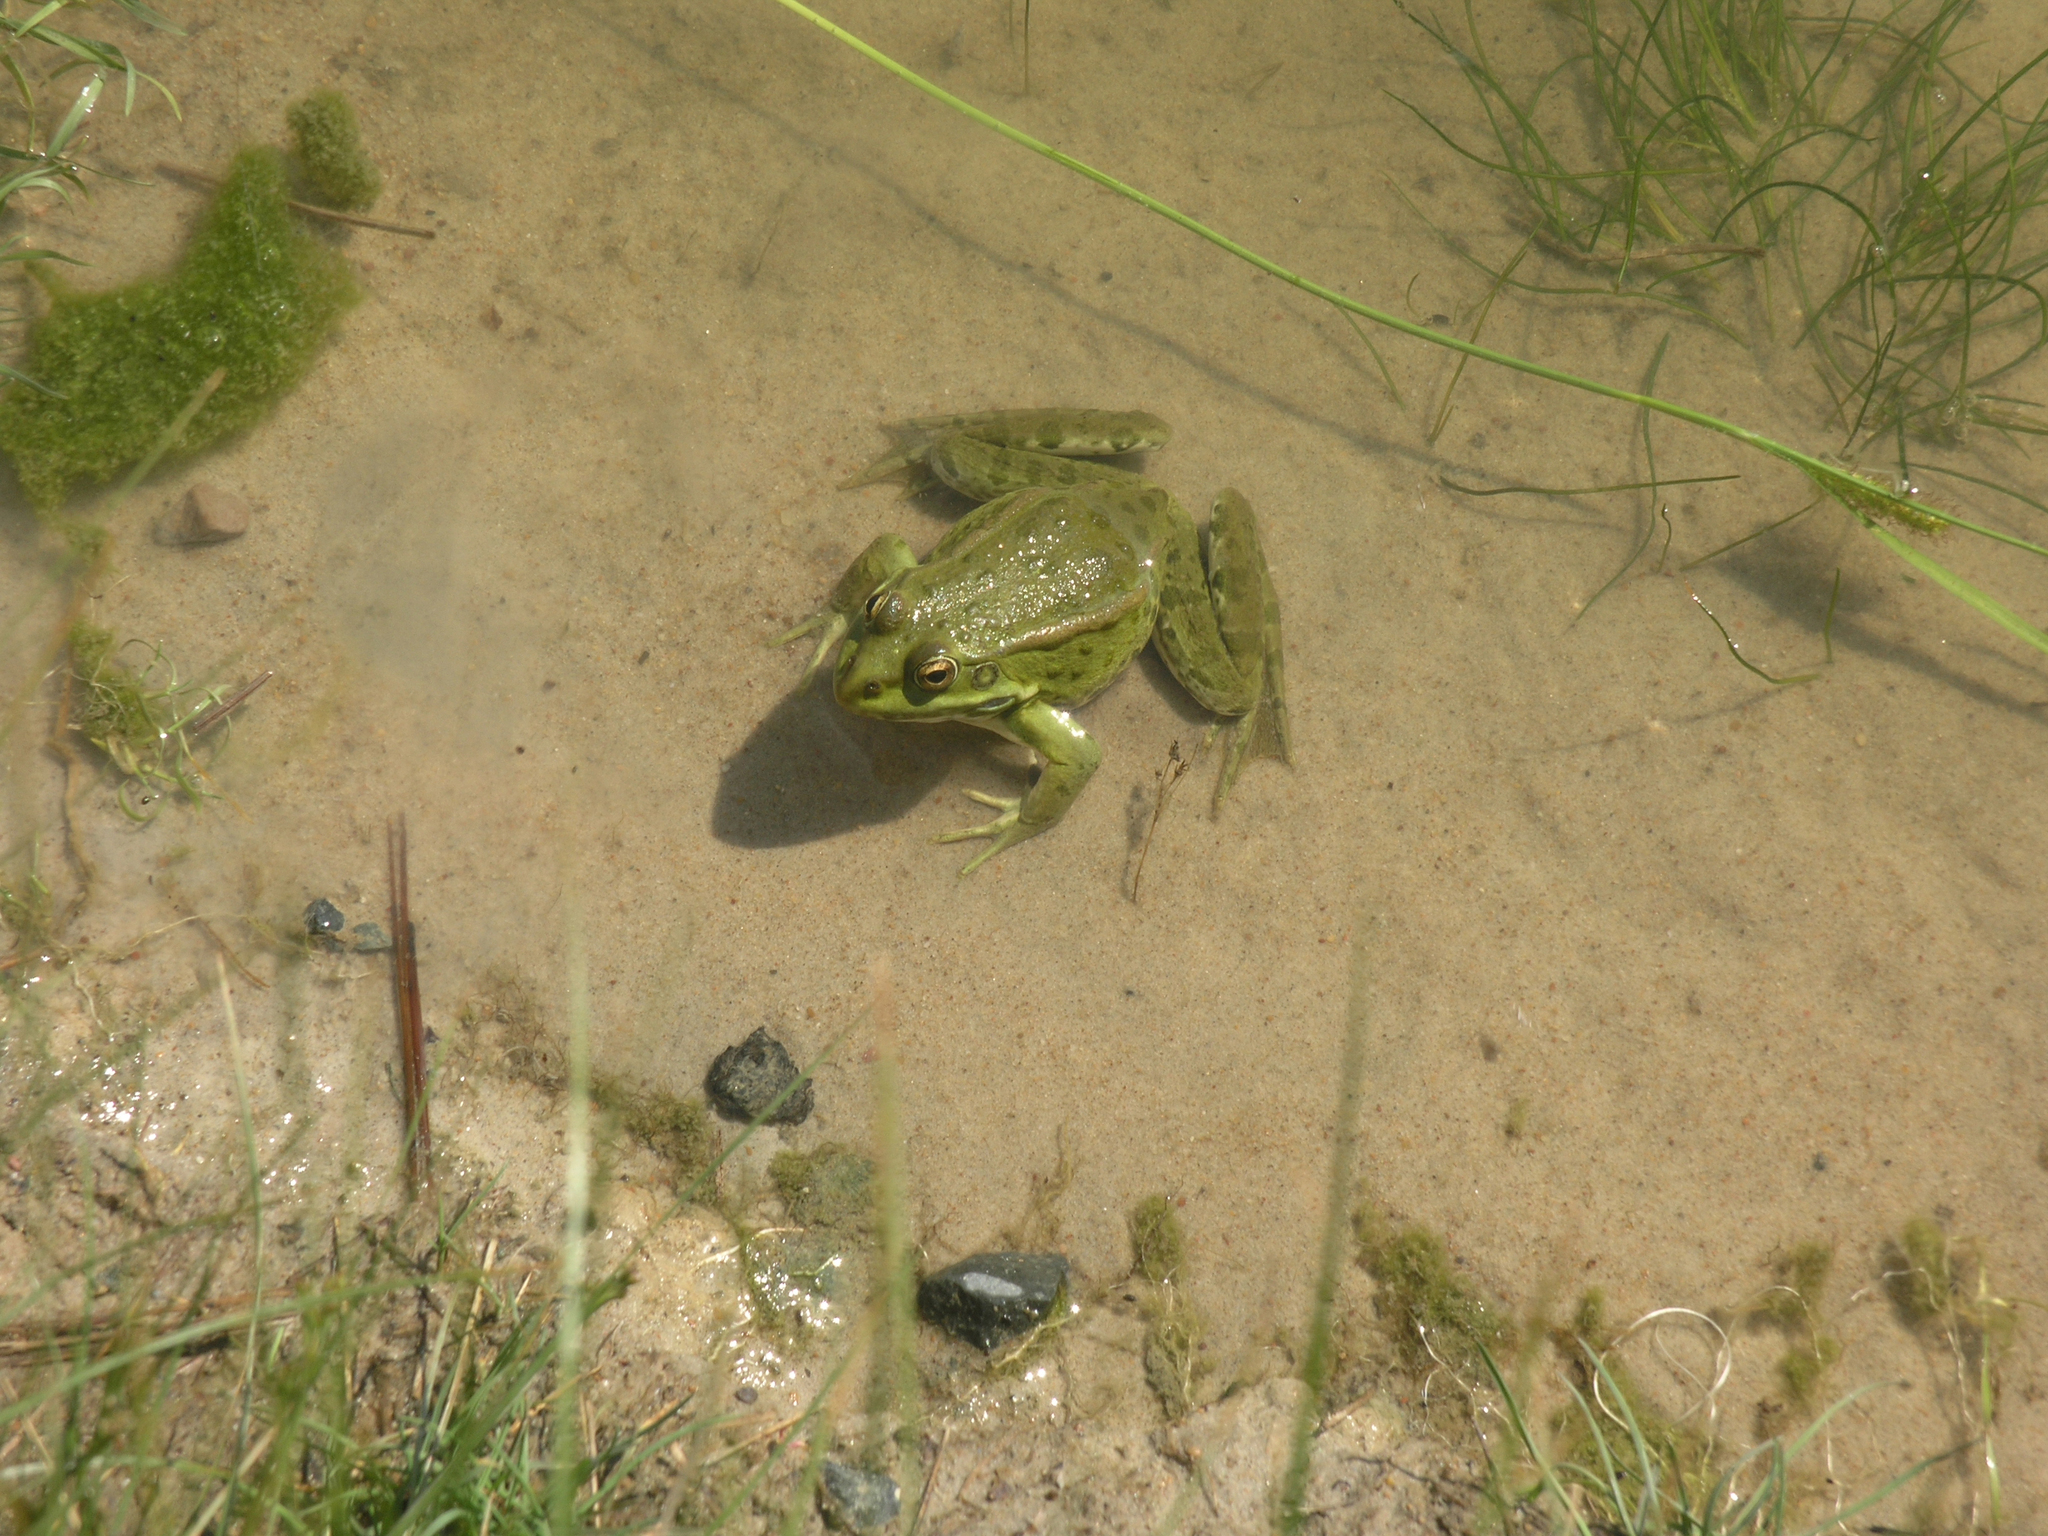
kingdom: Animalia
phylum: Chordata
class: Amphibia
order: Anura
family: Ranidae
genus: Pelophylax
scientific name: Pelophylax ridibundus
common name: Marsh frog
